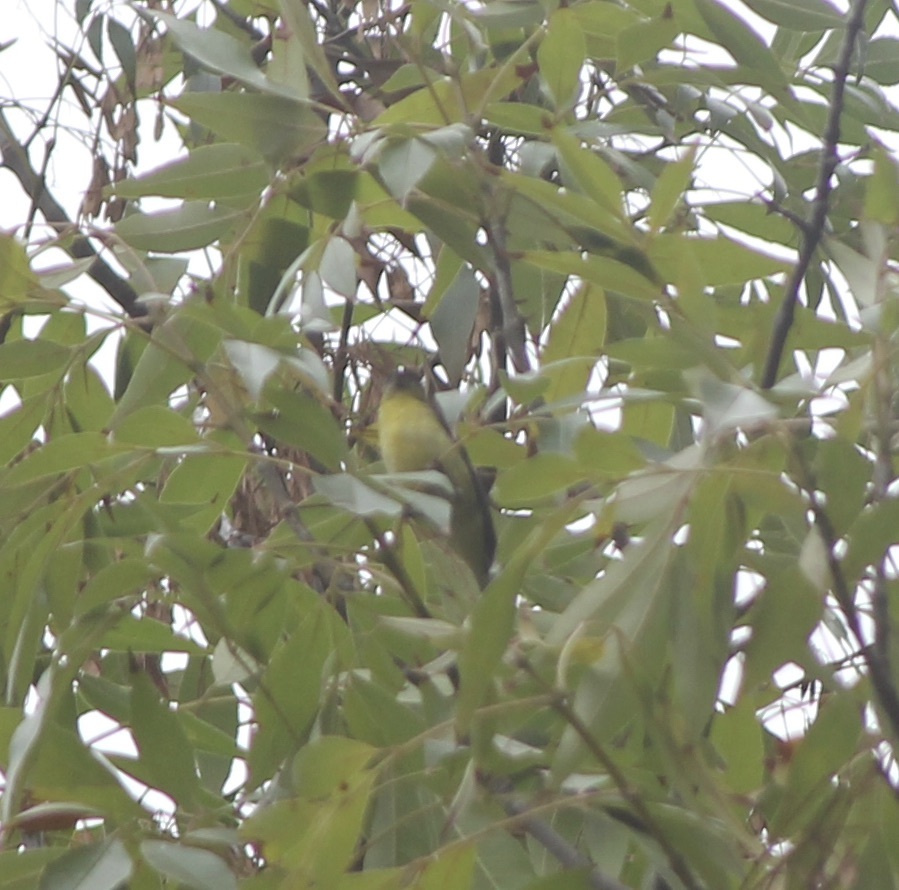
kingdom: Animalia
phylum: Chordata
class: Aves
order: Passeriformes
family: Fringillidae
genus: Spinus
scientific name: Spinus psaltria
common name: Lesser goldfinch
